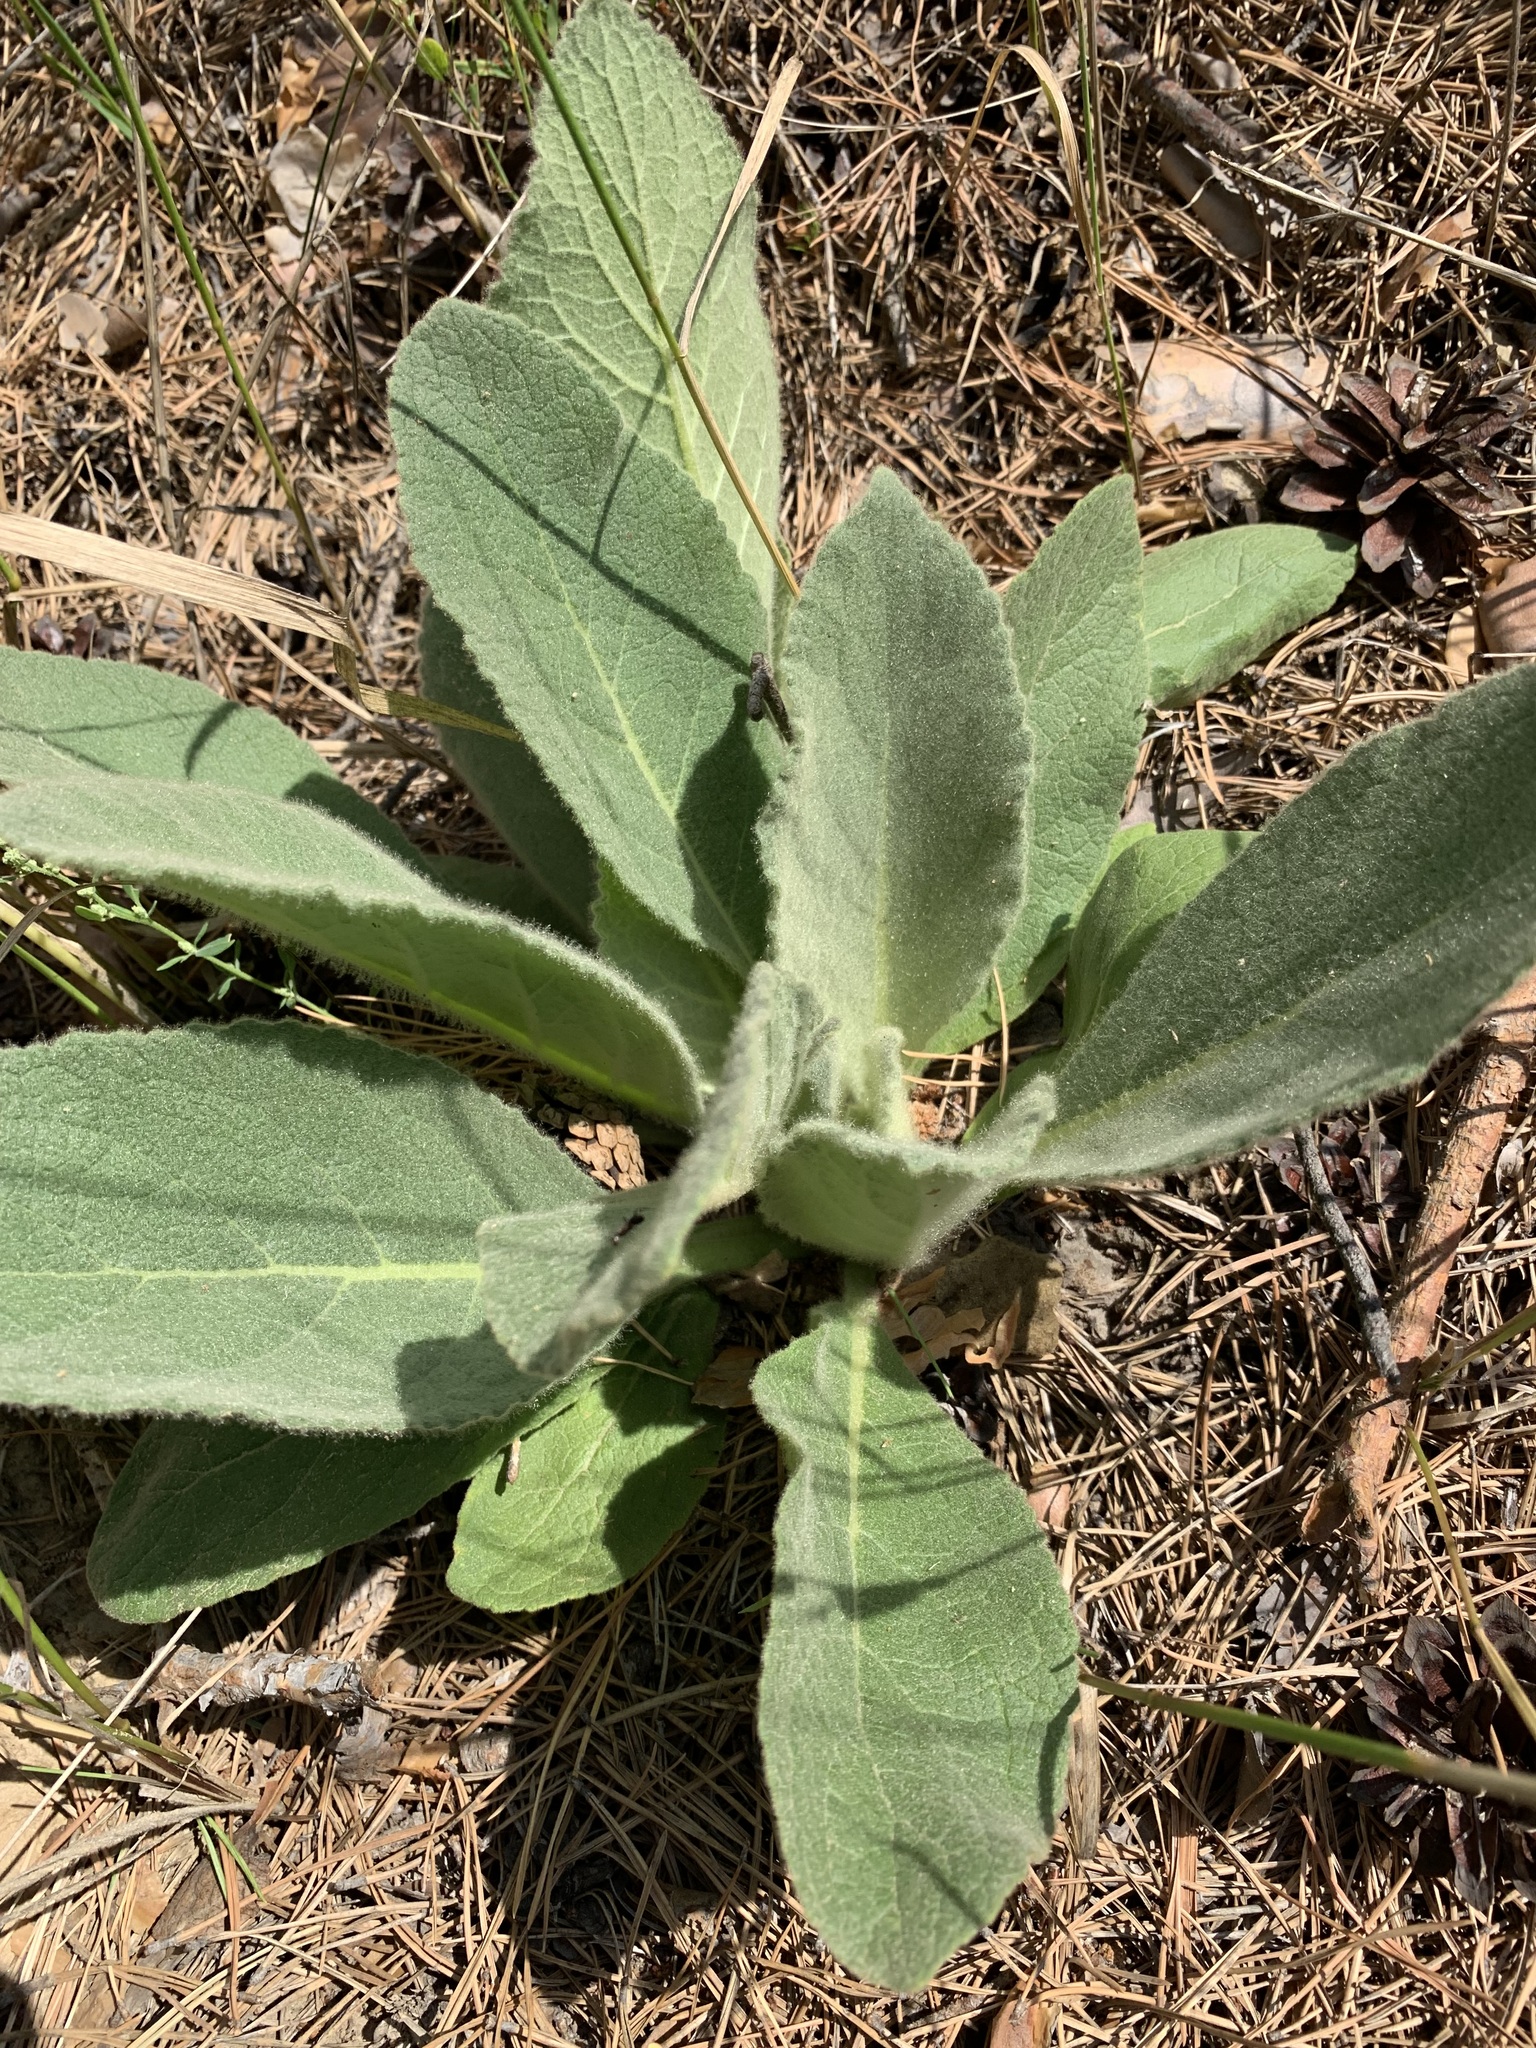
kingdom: Plantae
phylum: Tracheophyta
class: Magnoliopsida
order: Lamiales
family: Scrophulariaceae
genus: Verbascum
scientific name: Verbascum thapsus
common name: Common mullein
